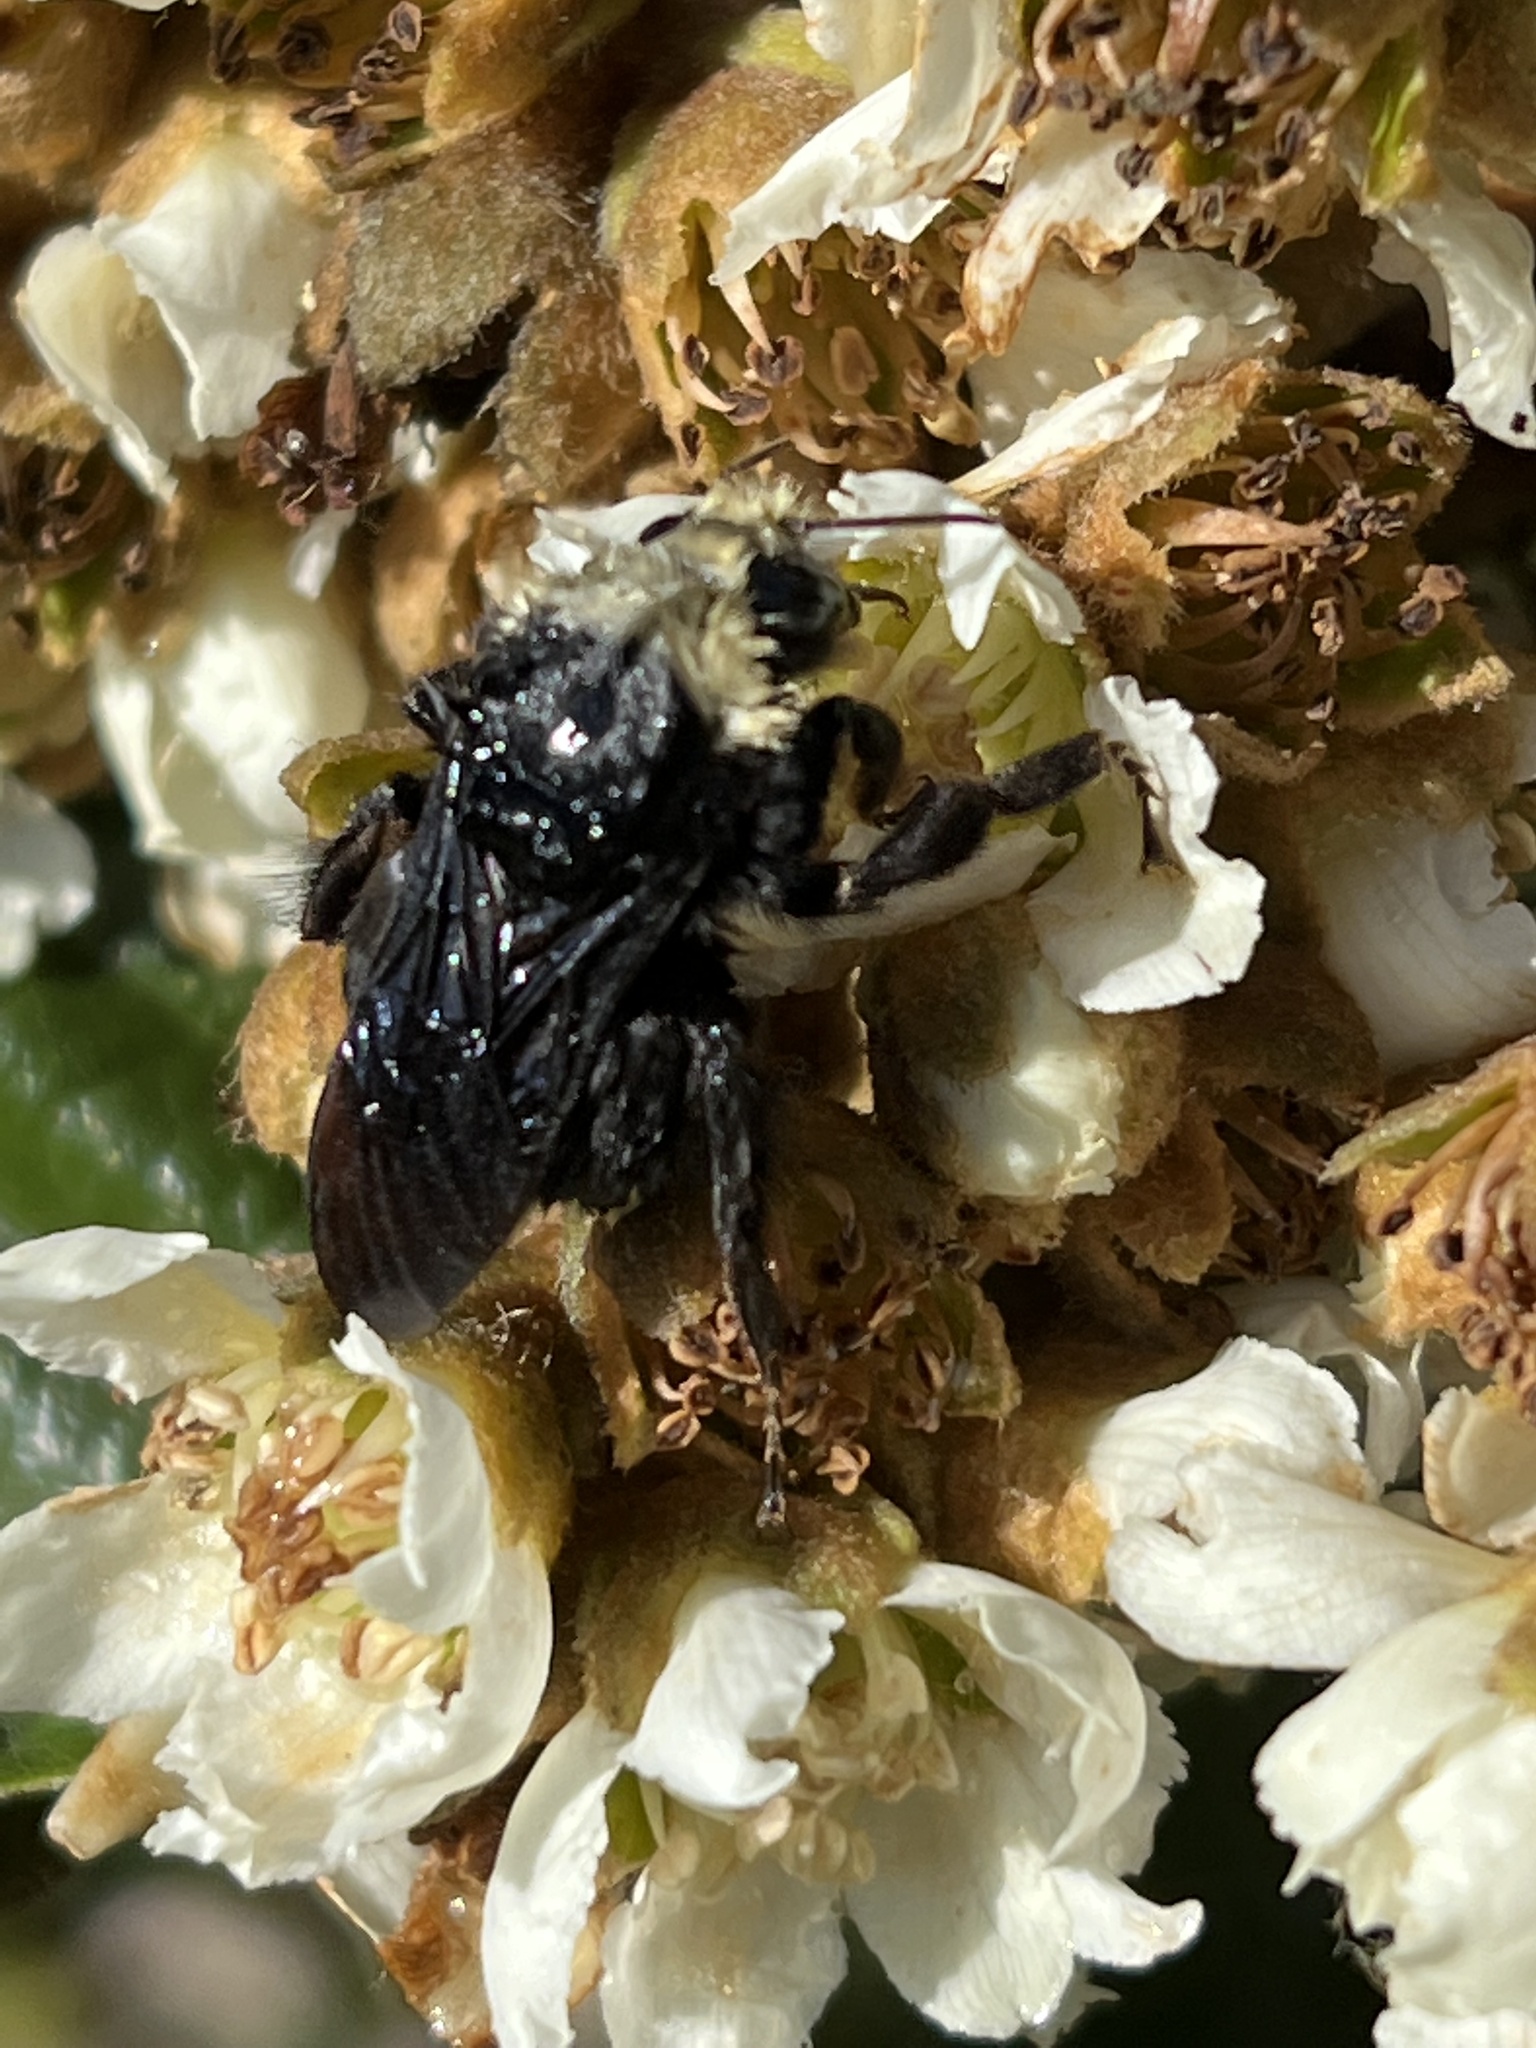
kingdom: Animalia
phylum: Arthropoda
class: Insecta
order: Hymenoptera
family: Apidae
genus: Pyrobombus
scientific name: Pyrobombus
